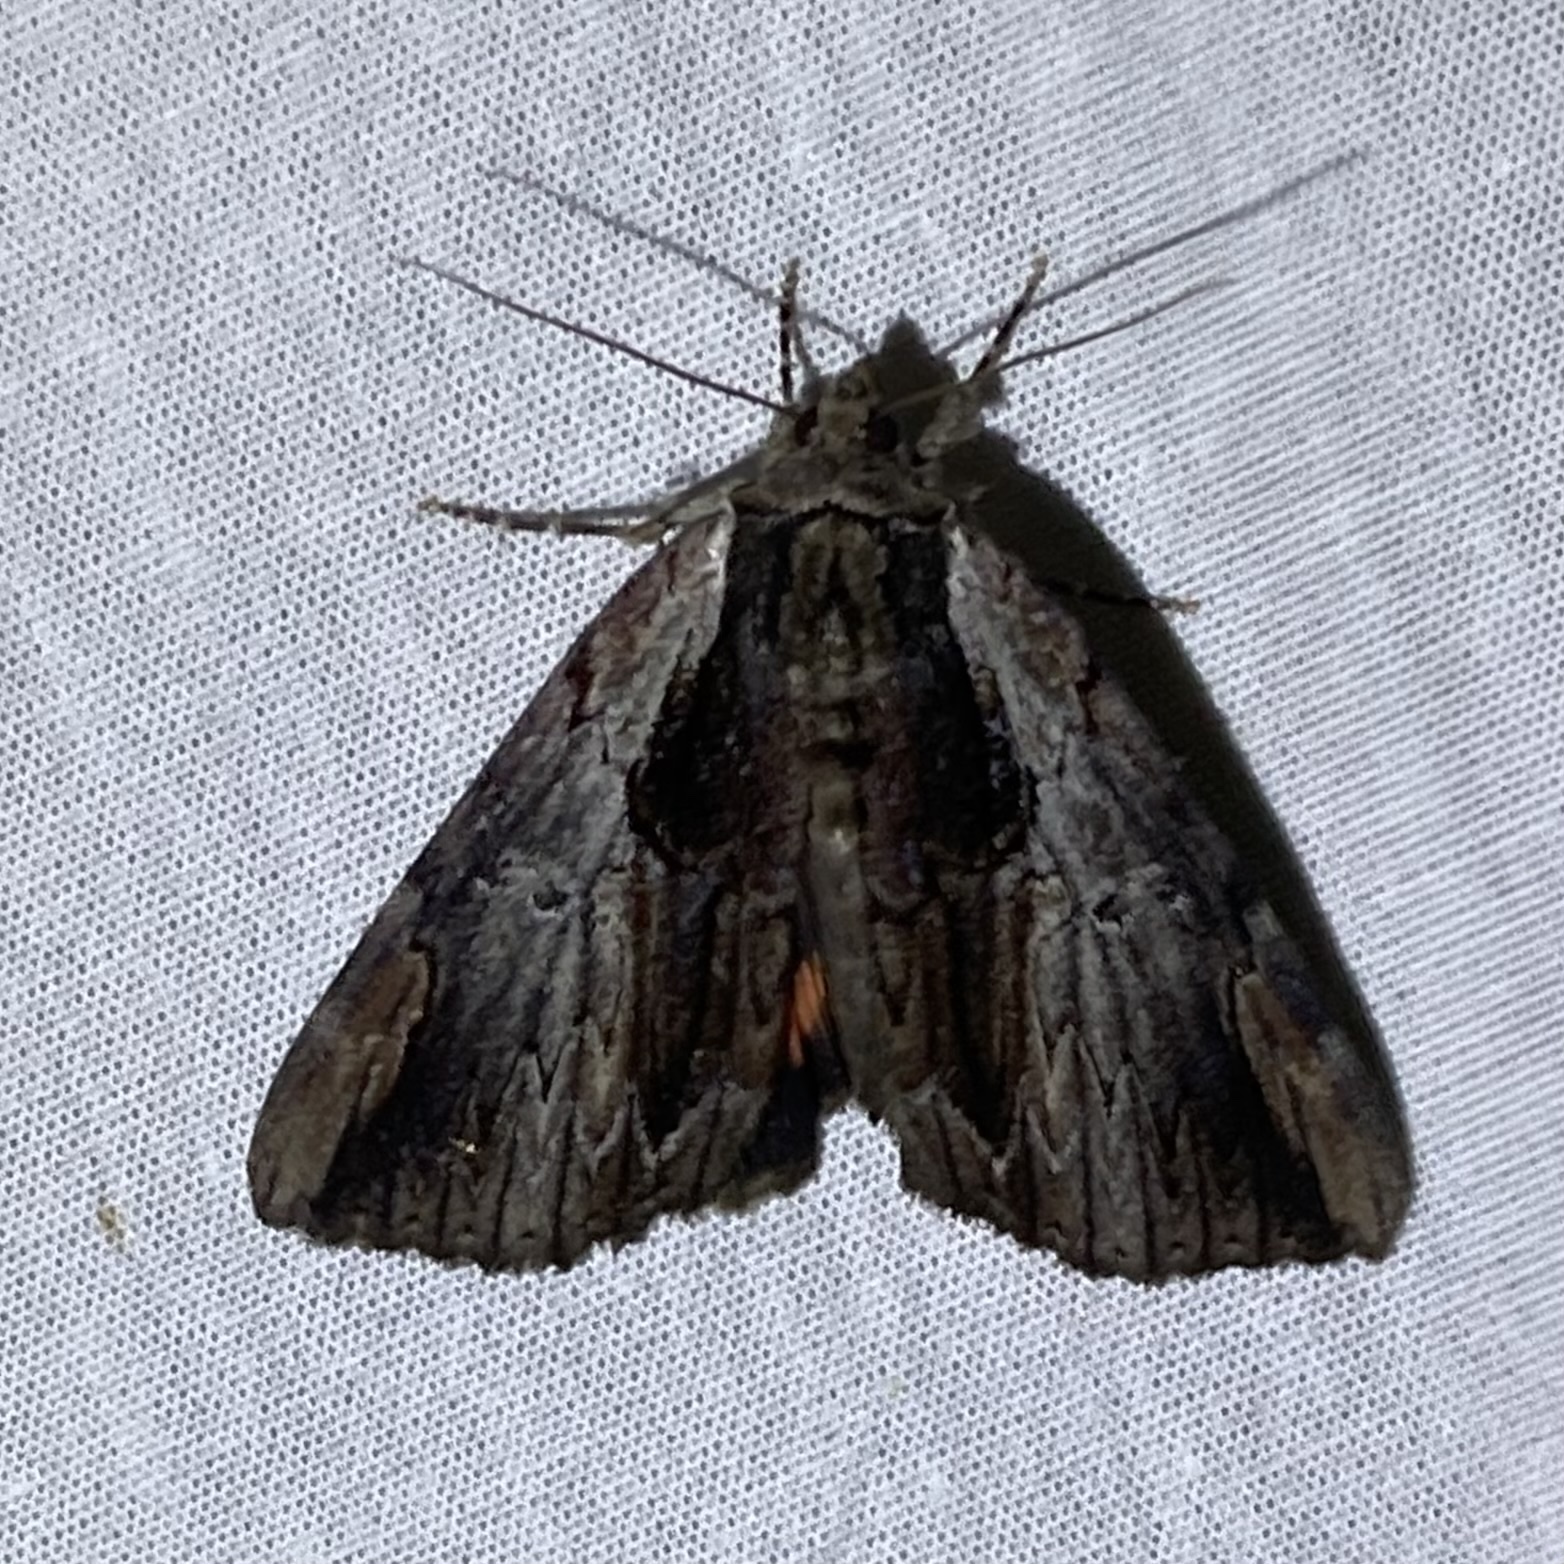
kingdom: Animalia
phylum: Arthropoda
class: Insecta
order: Lepidoptera
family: Erebidae
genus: Catocala
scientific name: Catocala ultronia
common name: Ultronia underwing
